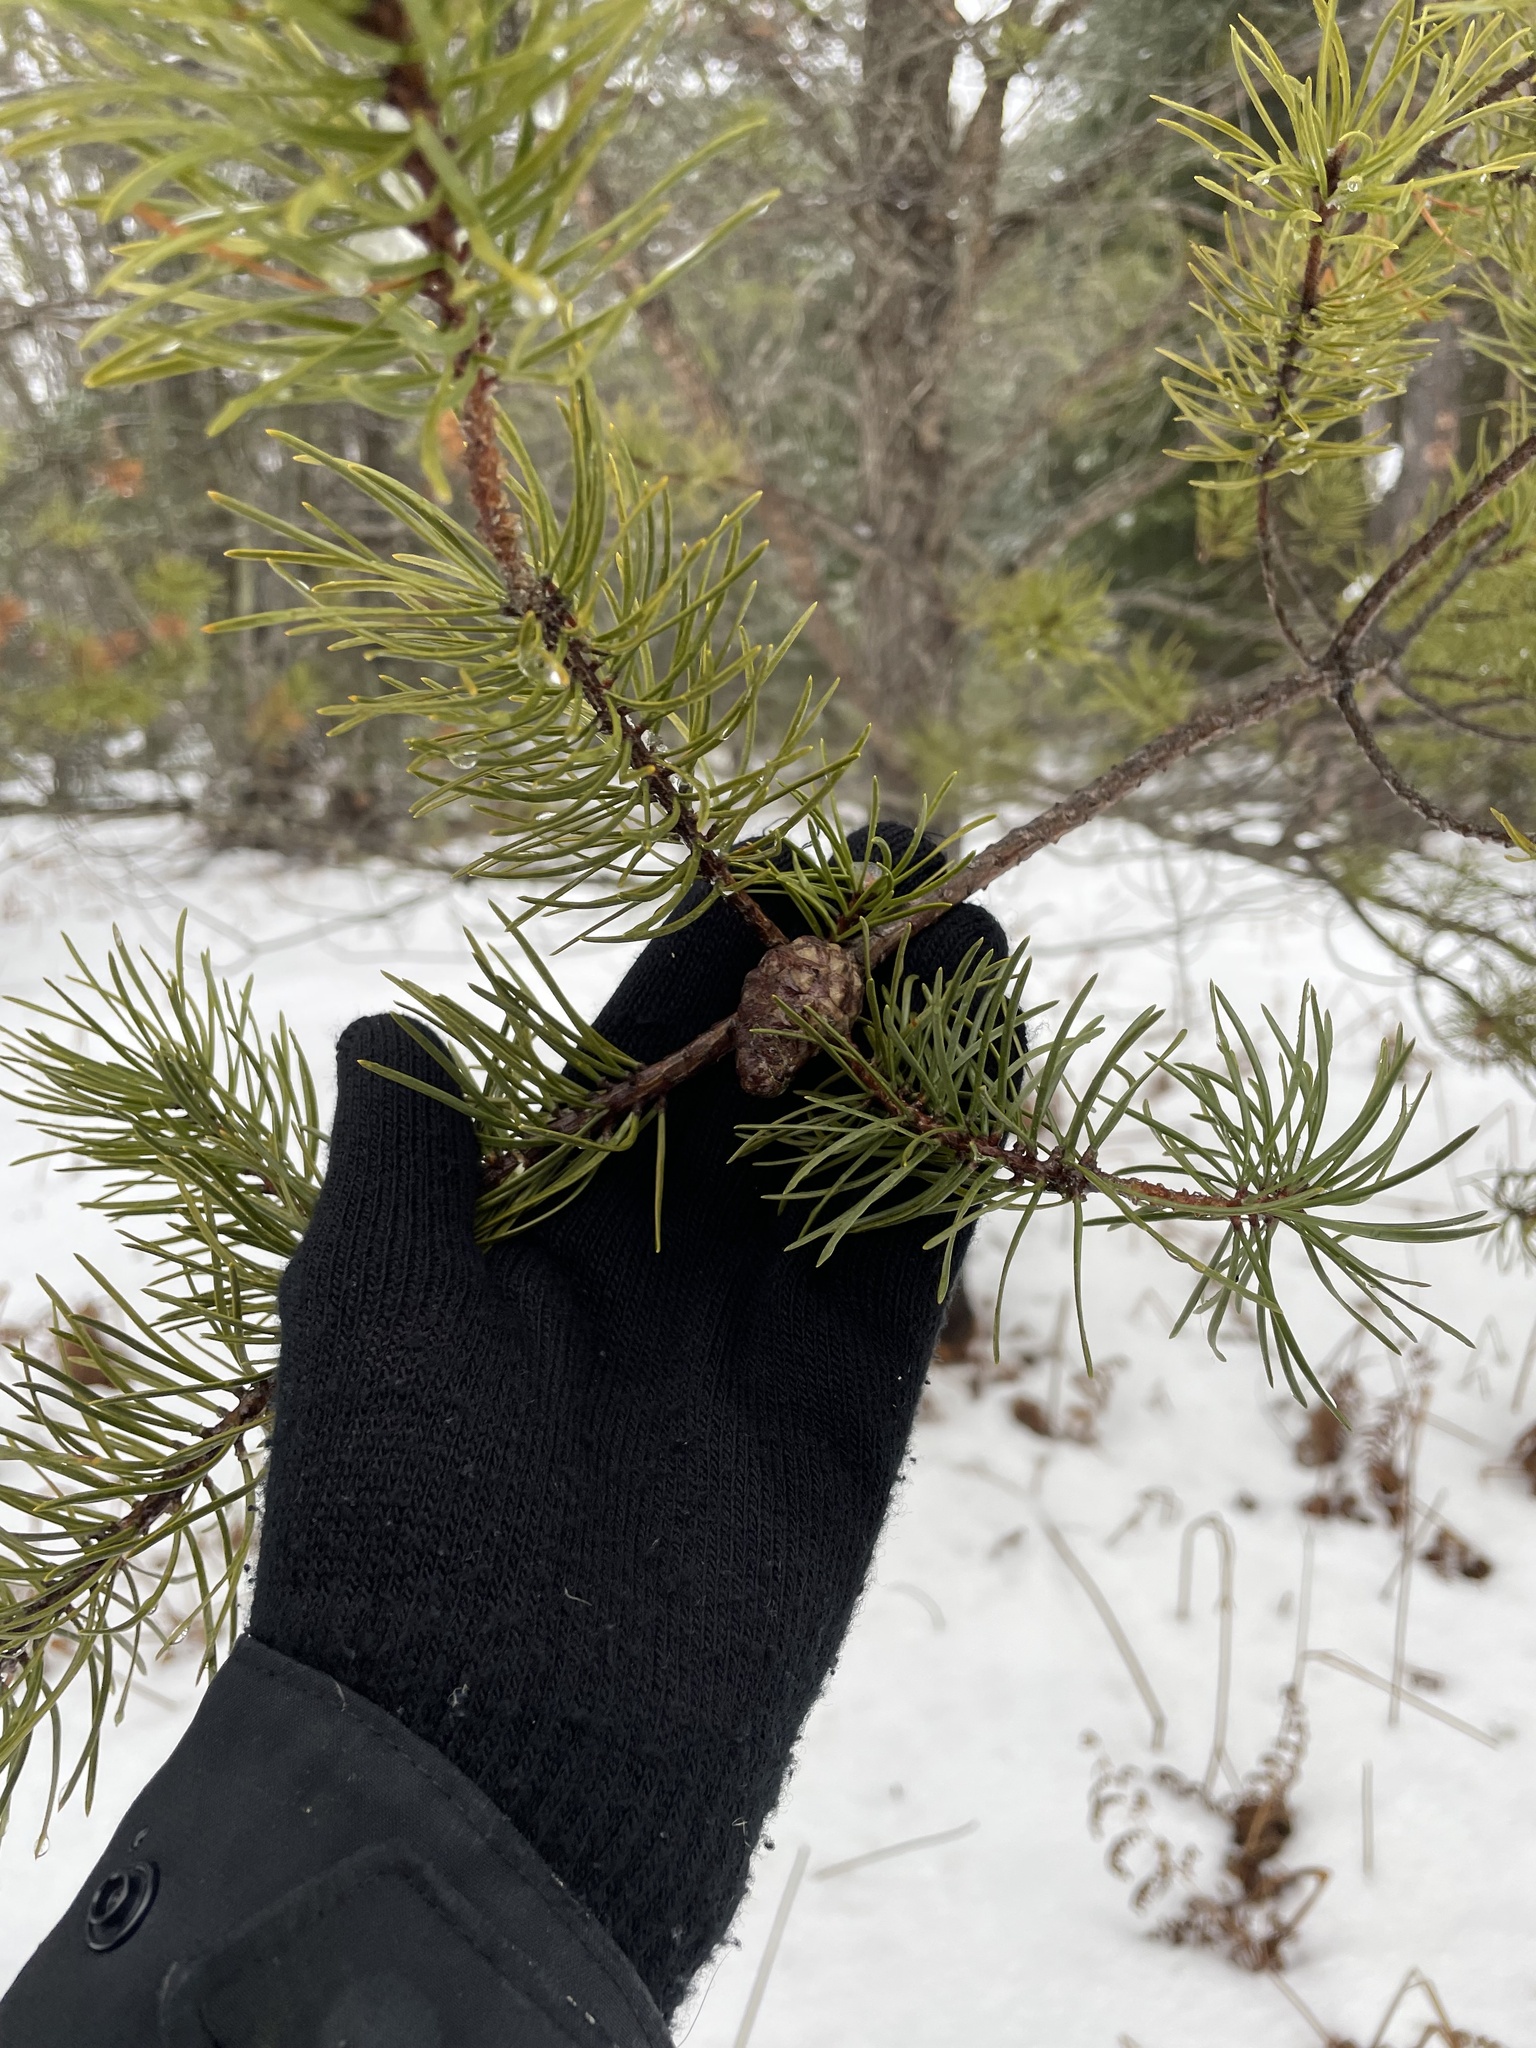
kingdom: Plantae
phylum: Tracheophyta
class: Pinopsida
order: Pinales
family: Pinaceae
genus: Pinus
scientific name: Pinus banksiana
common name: Jack pine
